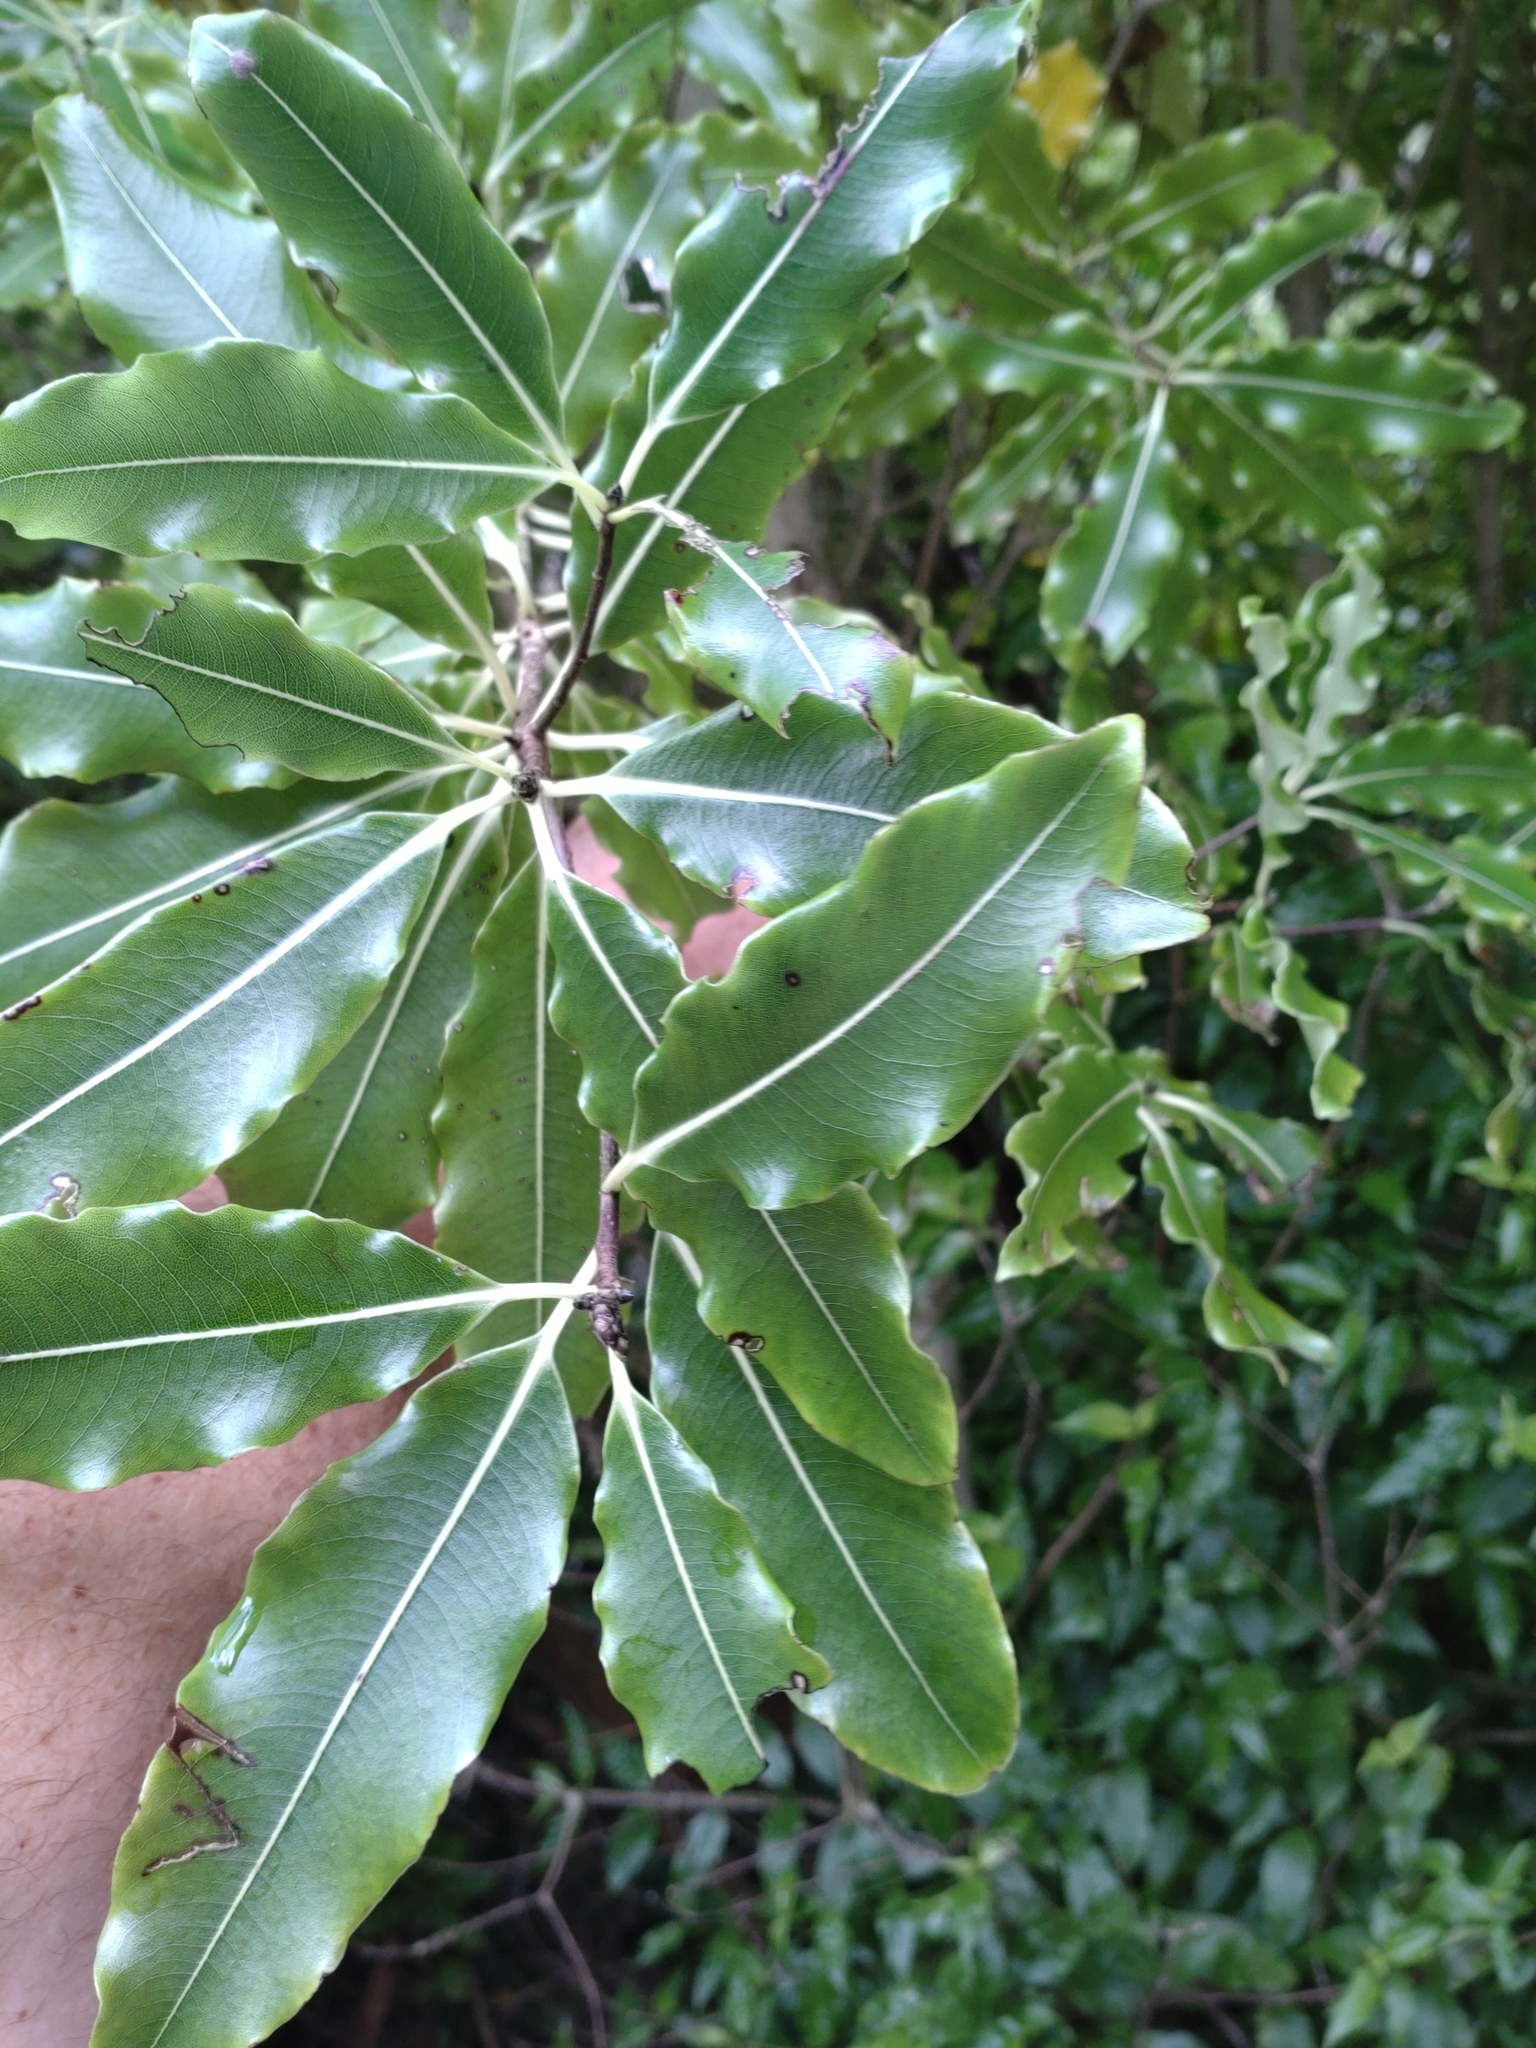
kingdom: Plantae
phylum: Tracheophyta
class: Magnoliopsida
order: Apiales
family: Pittosporaceae
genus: Pittosporum
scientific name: Pittosporum eugenioides
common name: Lemonwood
